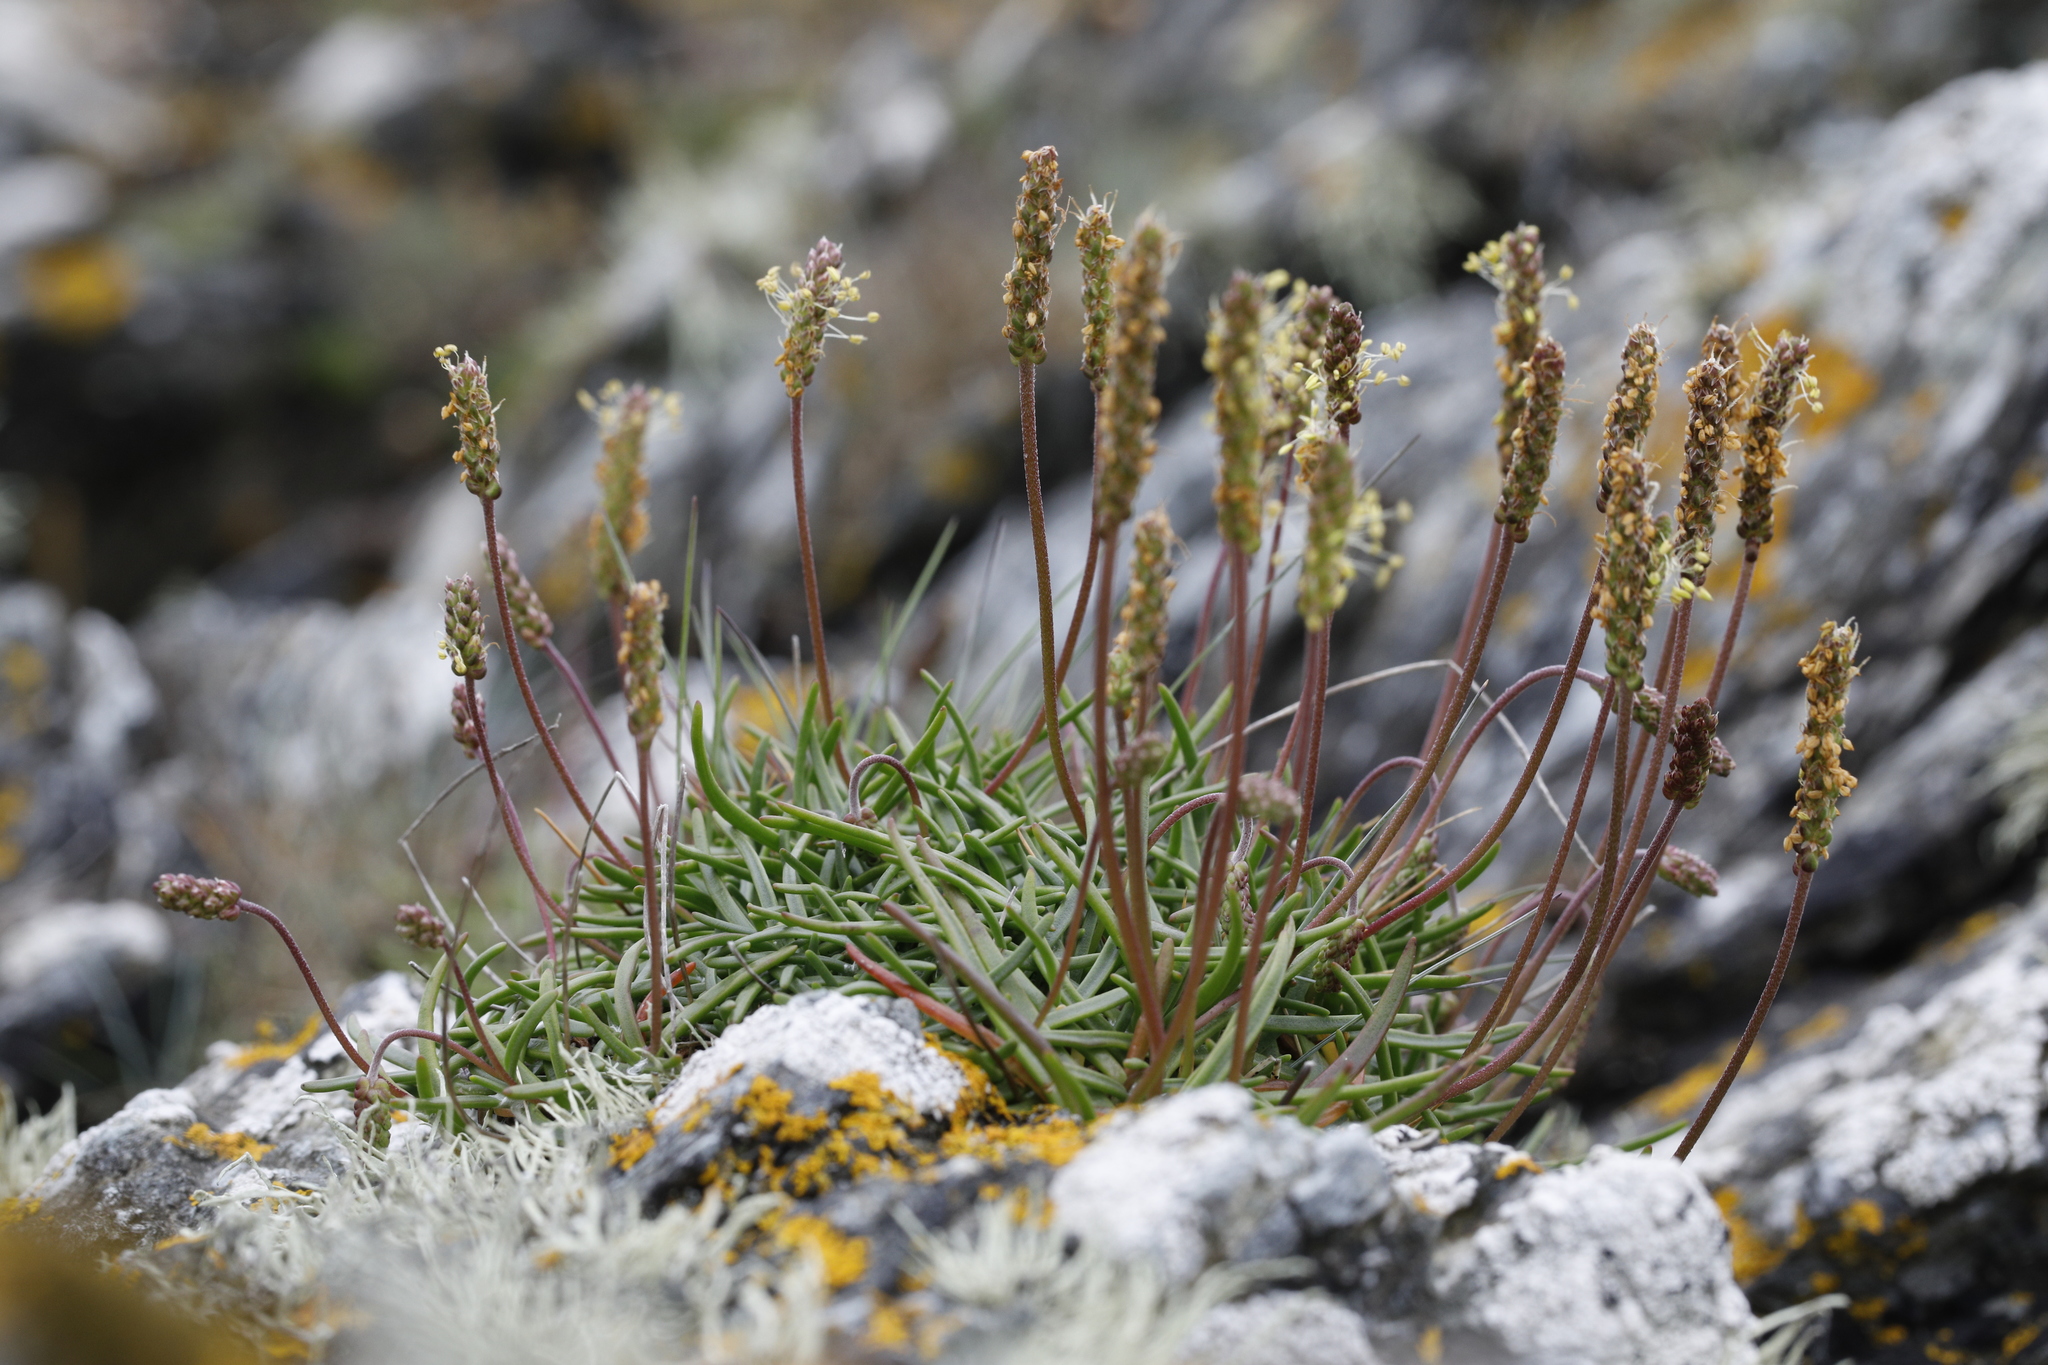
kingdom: Plantae
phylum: Tracheophyta
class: Magnoliopsida
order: Lamiales
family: Plantaginaceae
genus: Plantago
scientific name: Plantago maritima
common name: Sea plantain
